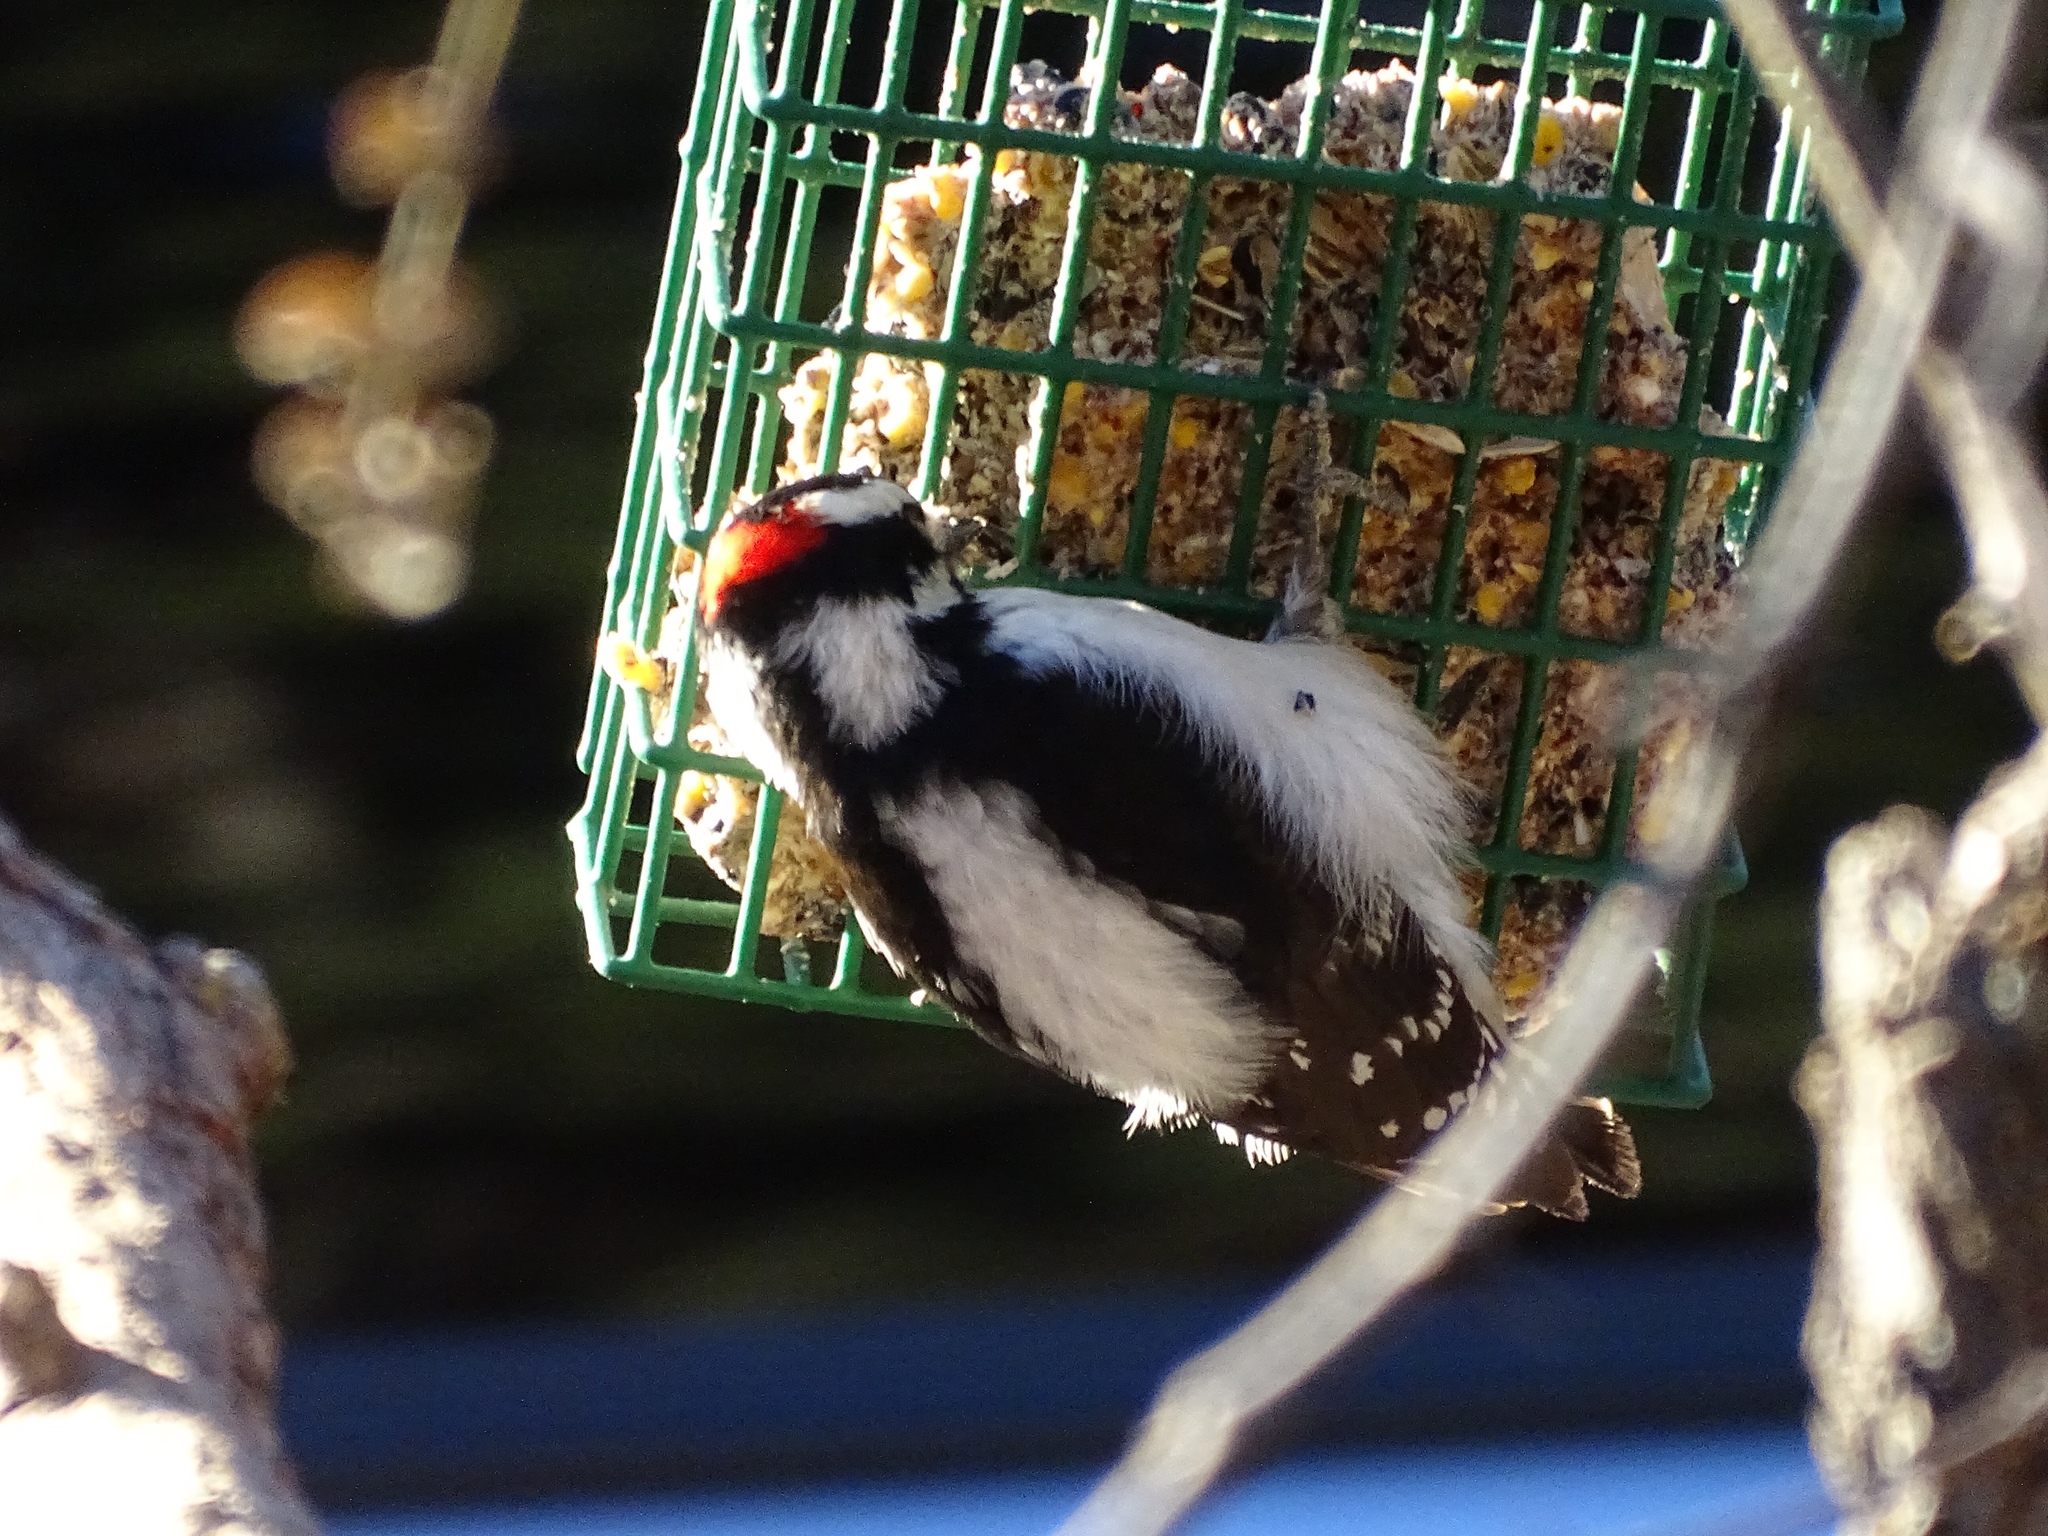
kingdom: Animalia
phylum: Chordata
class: Aves
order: Piciformes
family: Picidae
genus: Dryobates
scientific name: Dryobates pubescens
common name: Downy woodpecker
